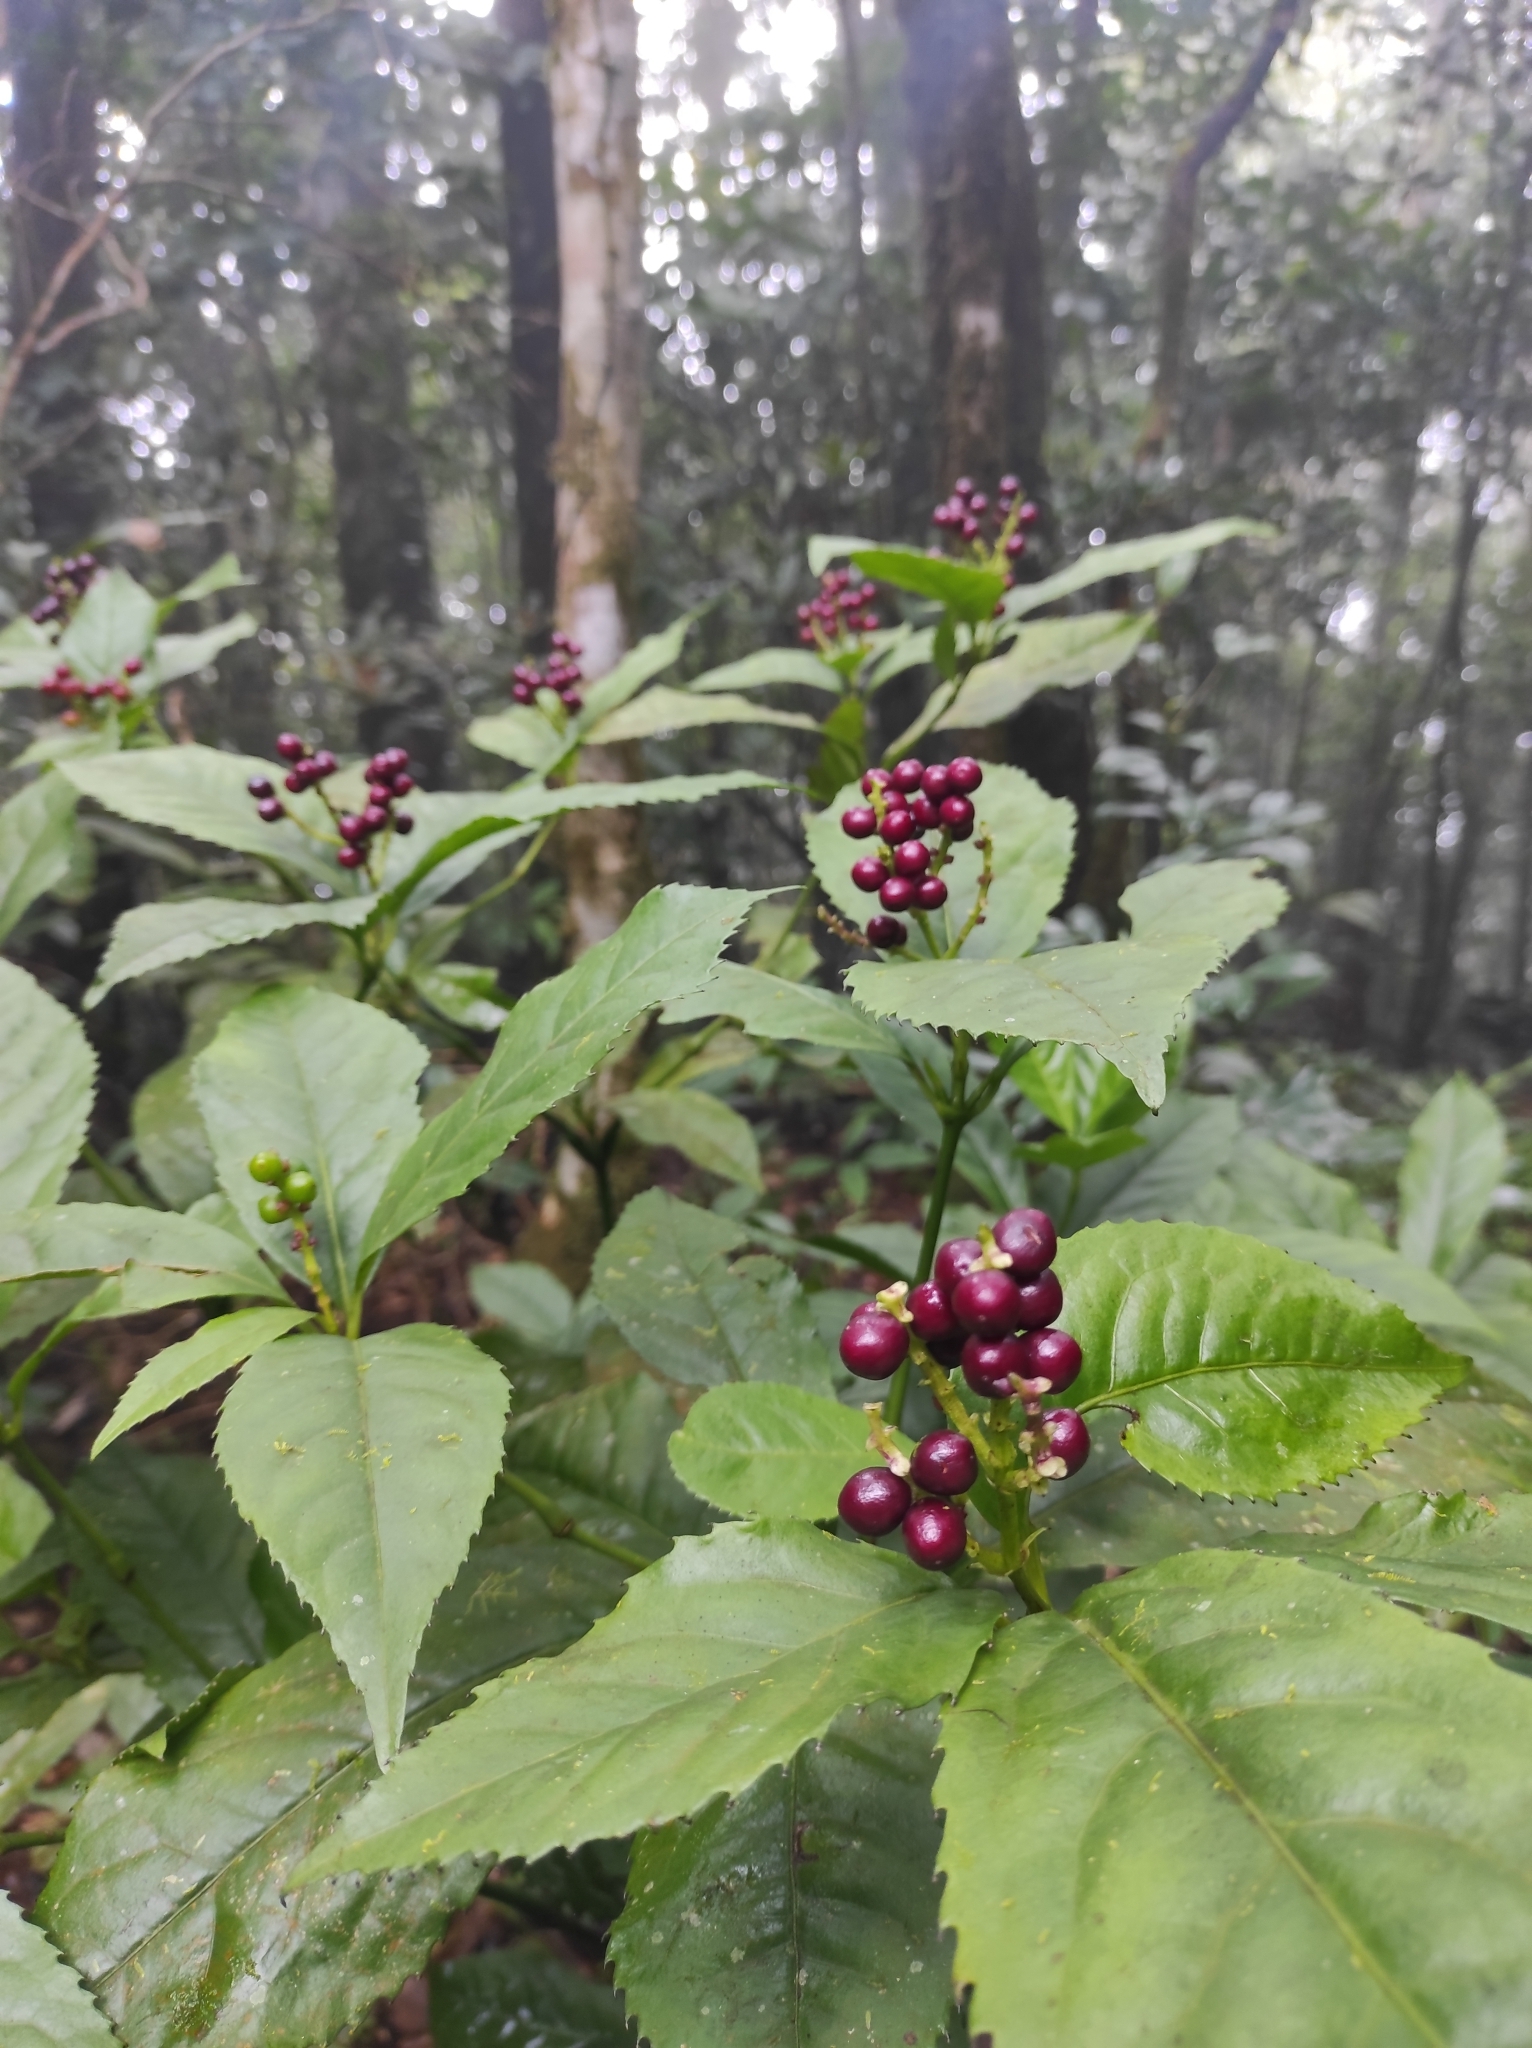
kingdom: Plantae
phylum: Tracheophyta
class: Magnoliopsida
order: Chloranthales
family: Chloranthaceae
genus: Sarcandra
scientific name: Sarcandra glabra
